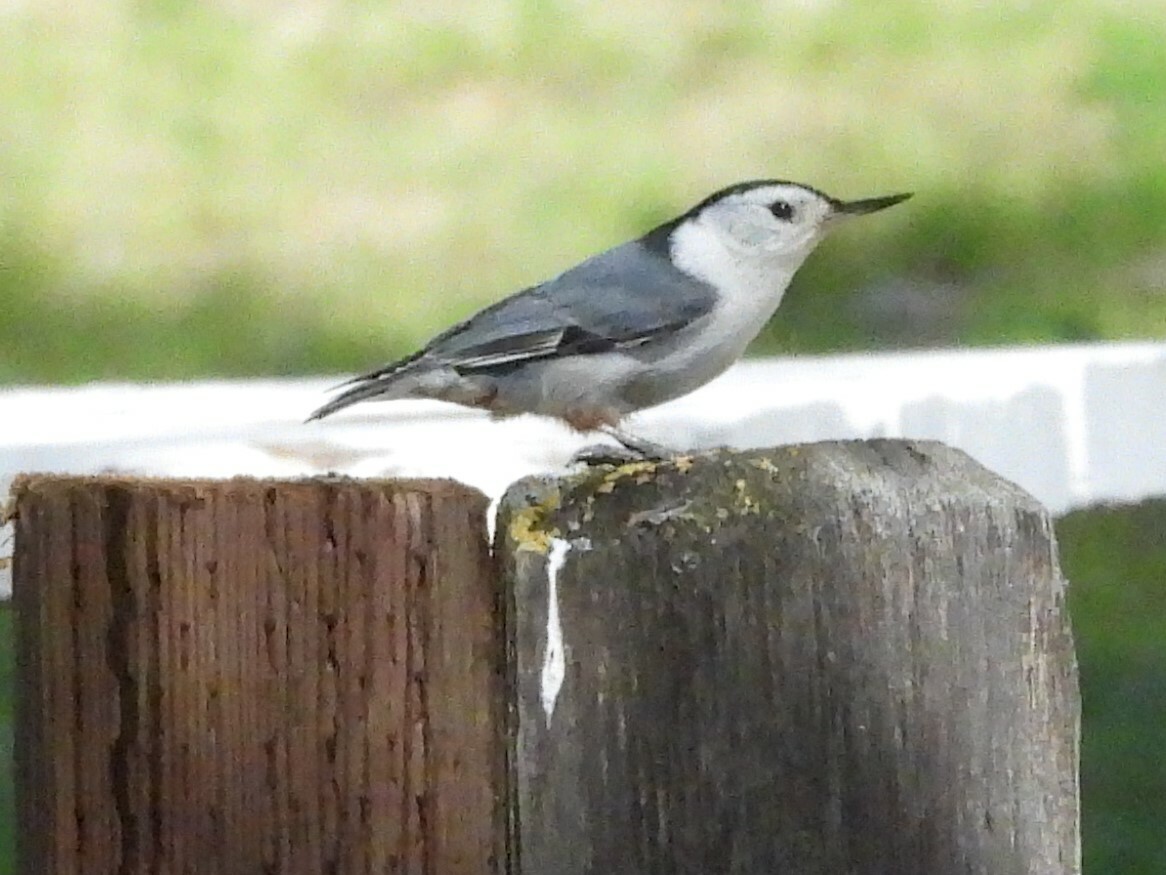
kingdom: Animalia
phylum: Chordata
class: Aves
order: Passeriformes
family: Sittidae
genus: Sitta
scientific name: Sitta carolinensis
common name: White-breasted nuthatch
